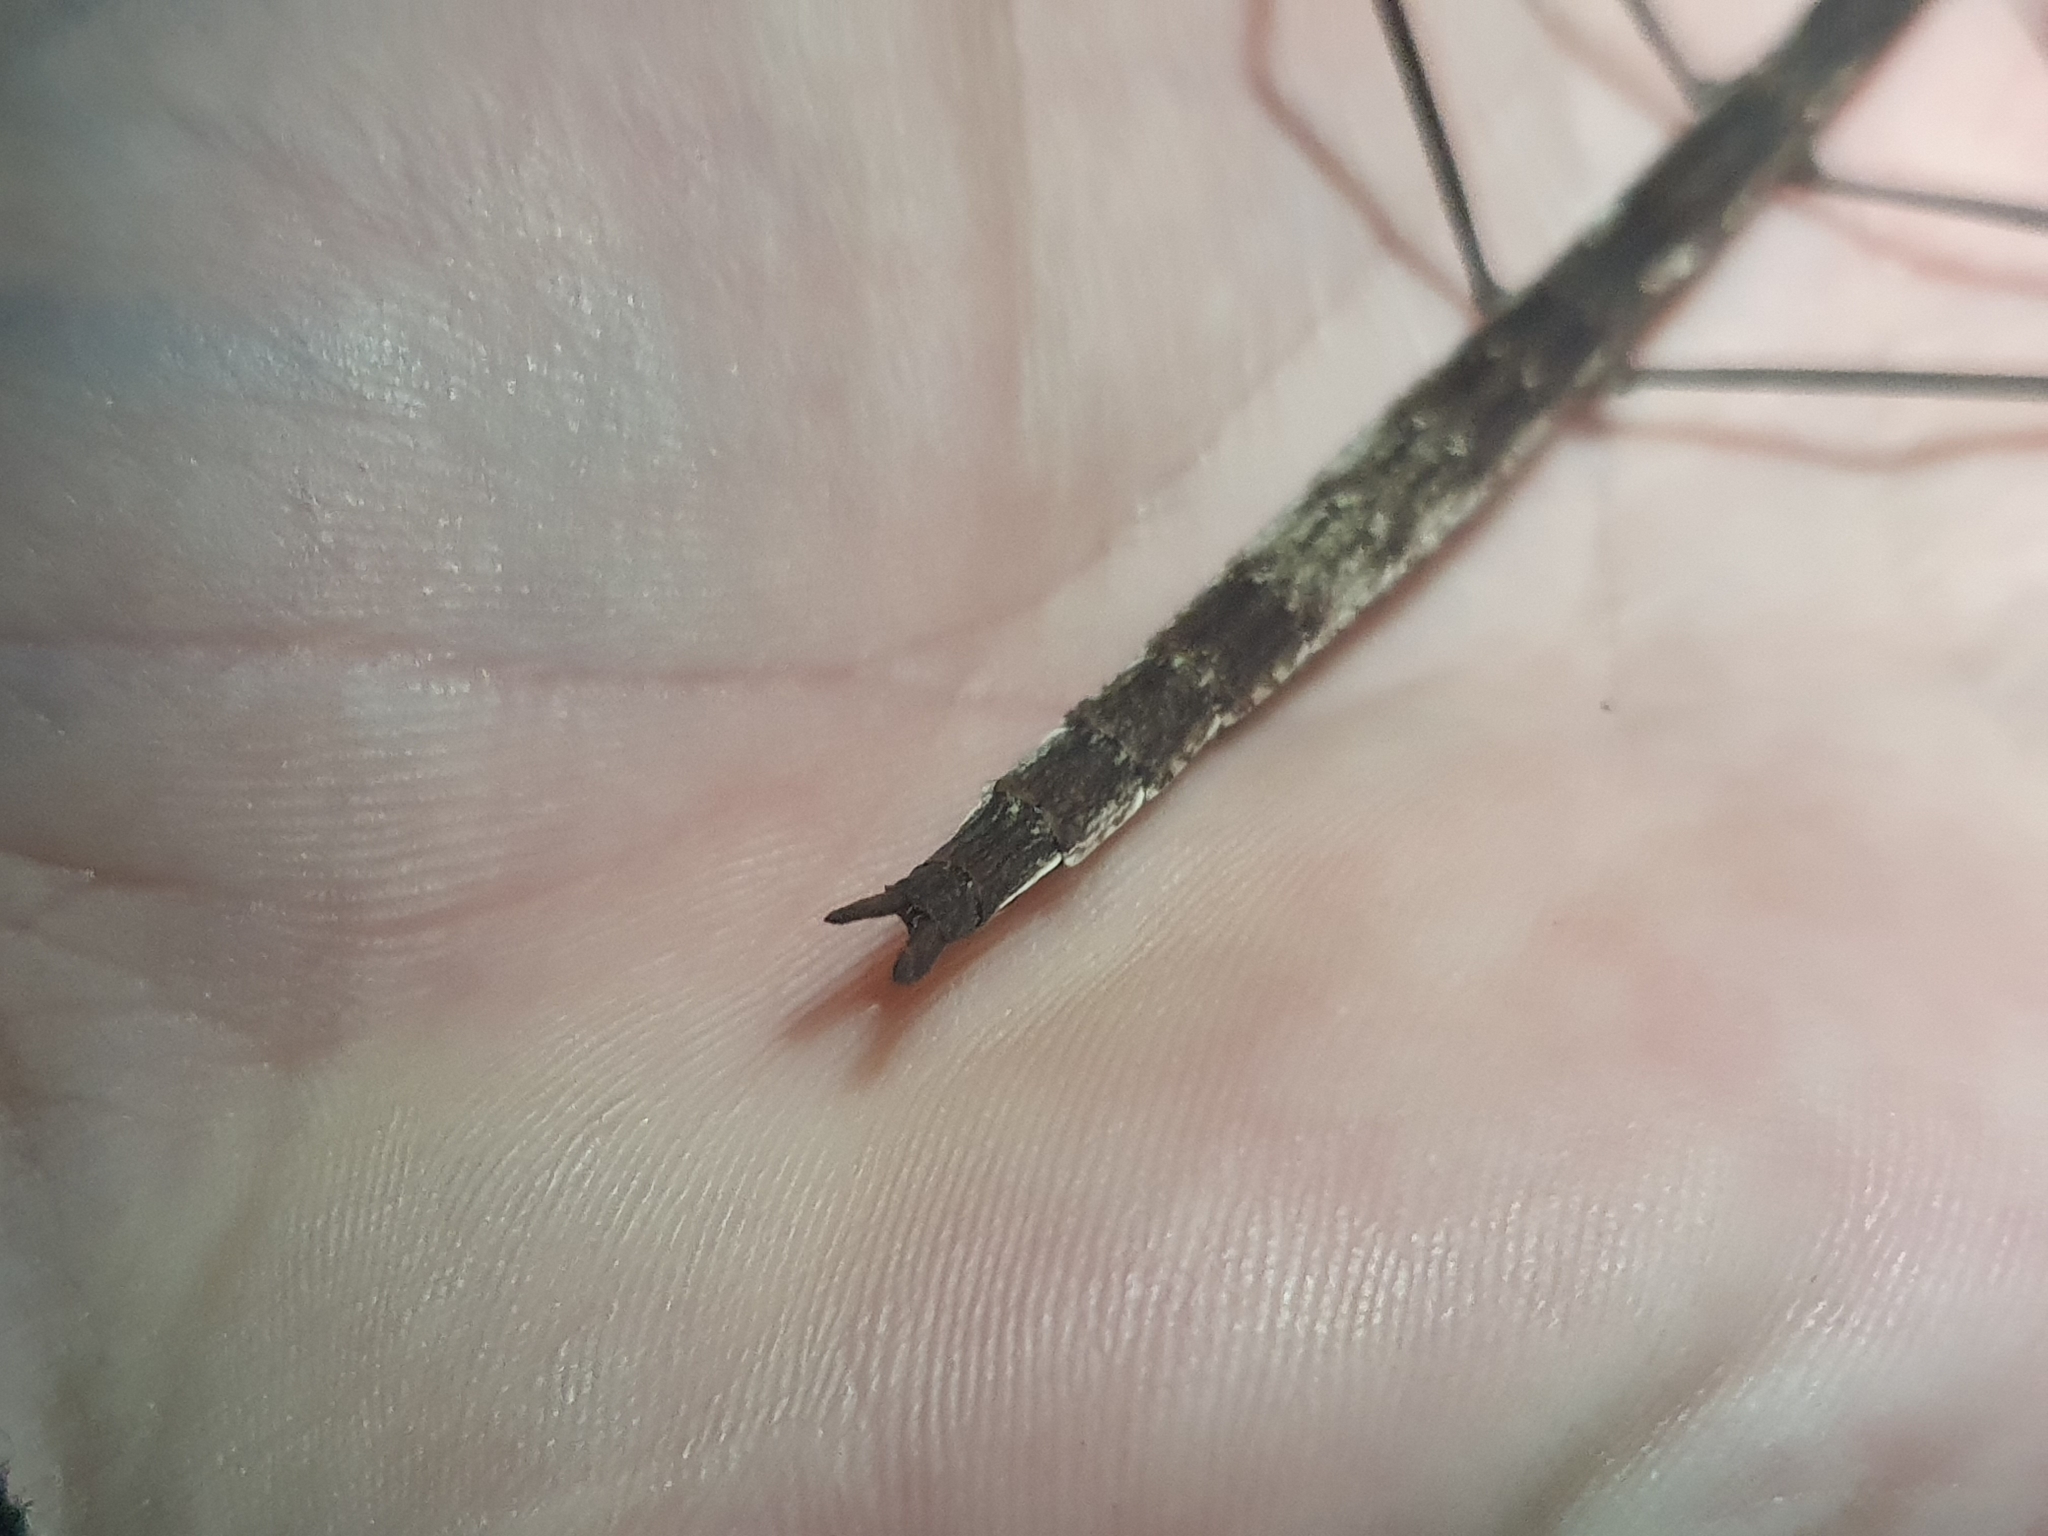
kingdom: Animalia
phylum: Arthropoda
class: Insecta
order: Phasmida
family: Phasmatidae
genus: Clitarchus
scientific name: Clitarchus hookeri
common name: Smooth stick insect
